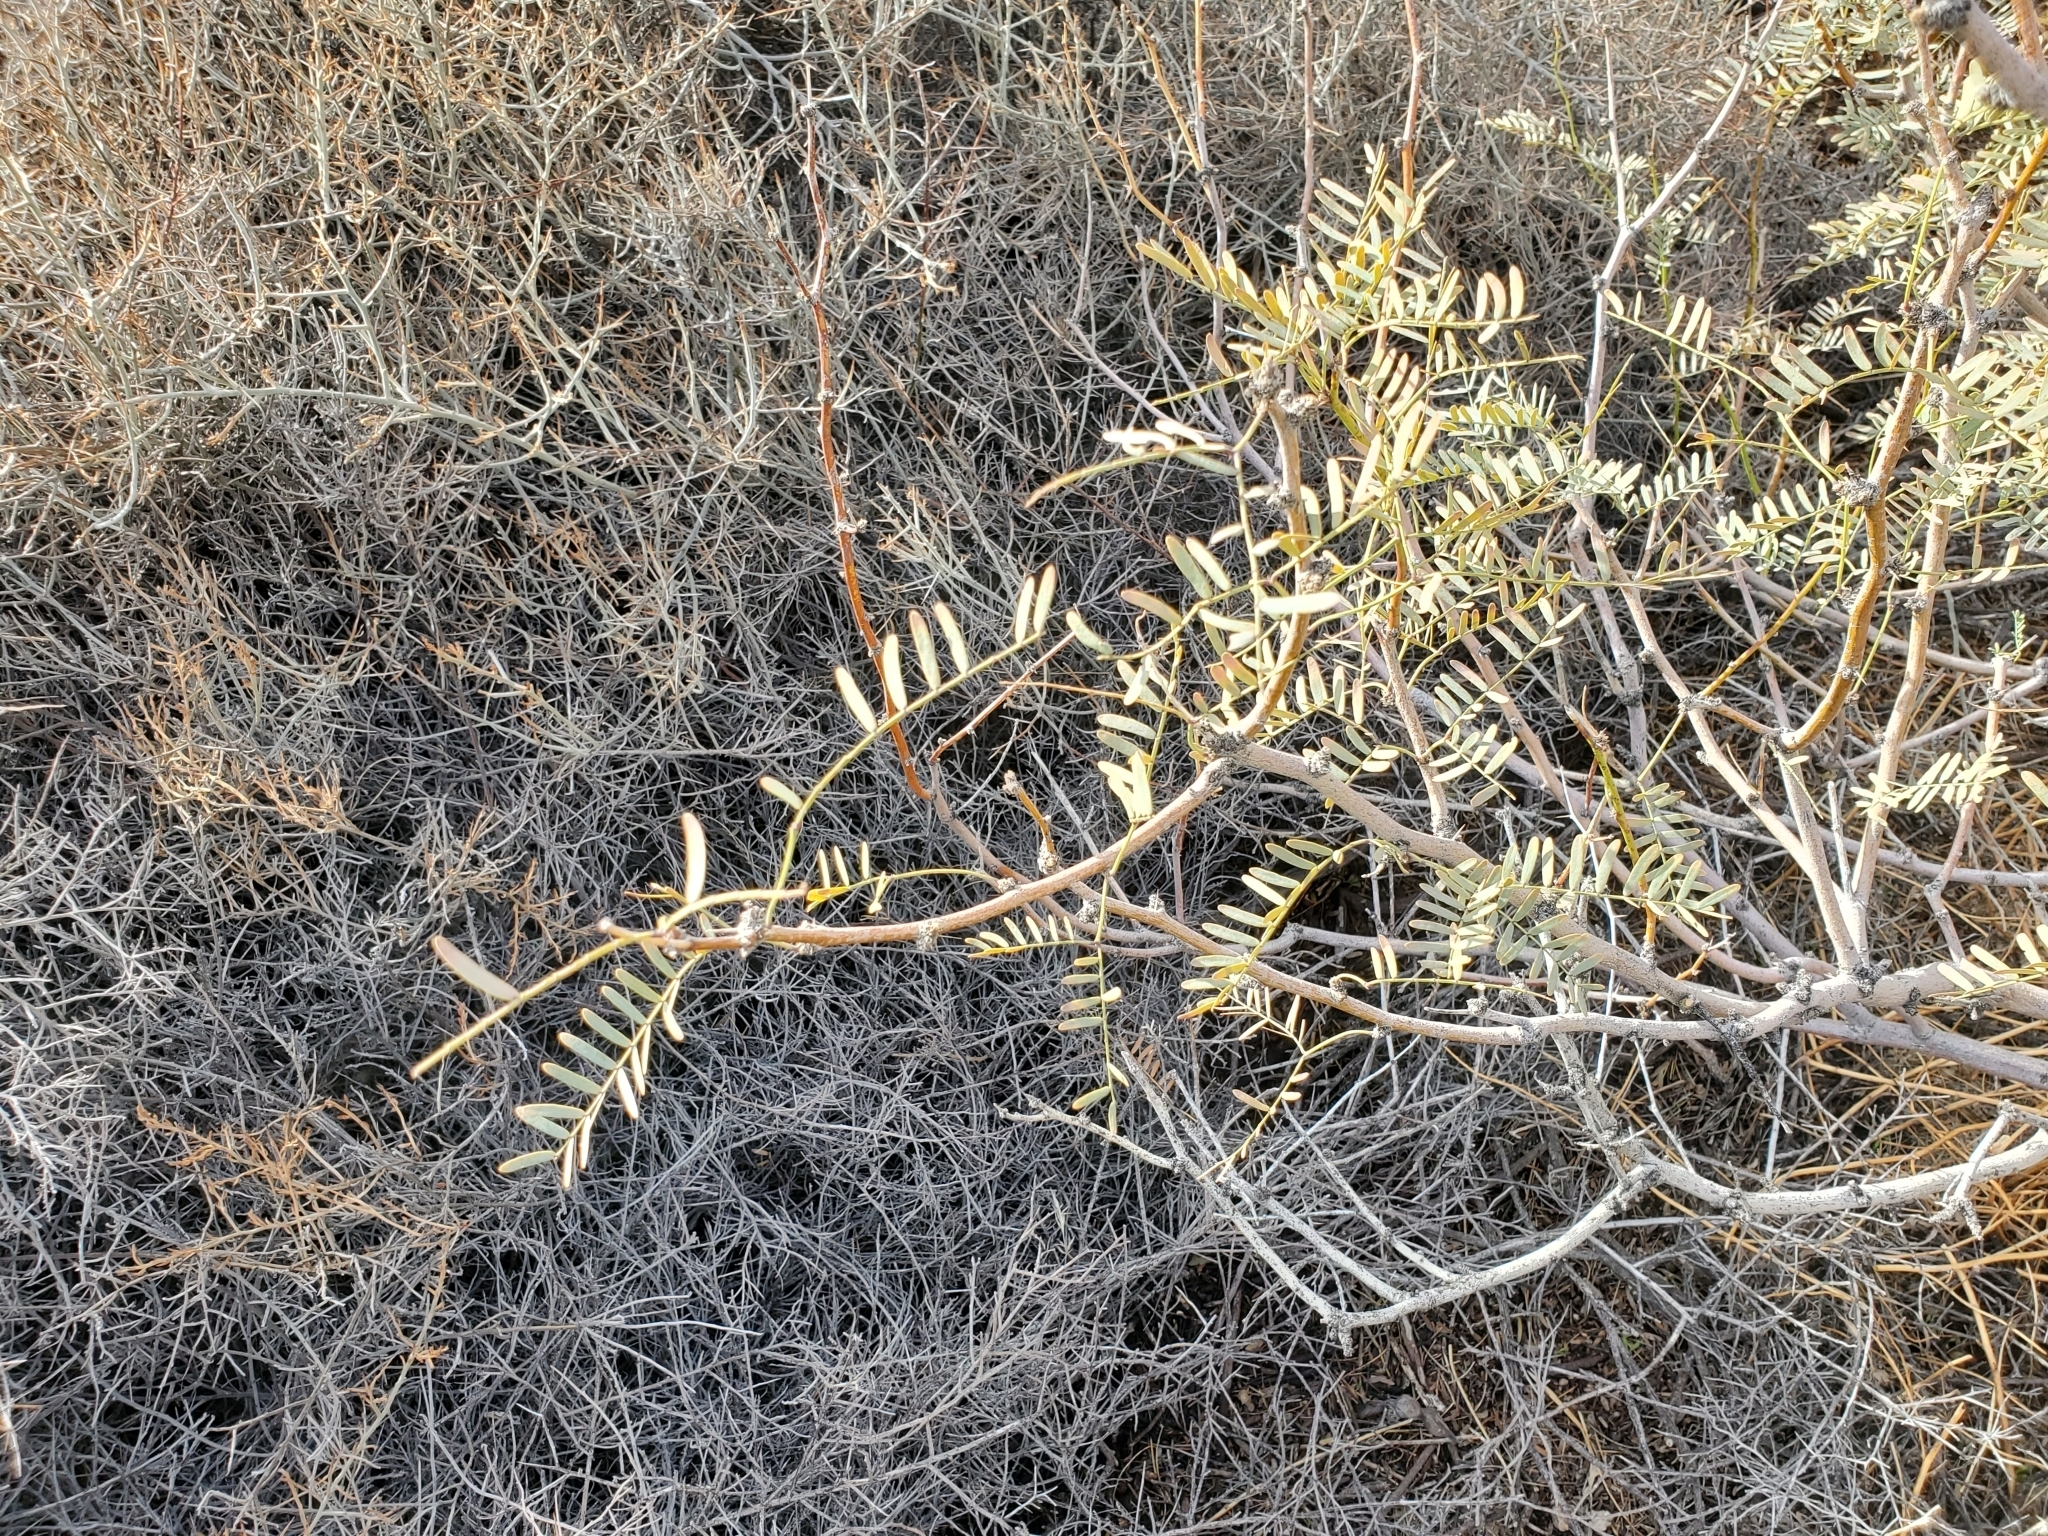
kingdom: Plantae
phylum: Tracheophyta
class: Magnoliopsida
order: Santalales
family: Viscaceae
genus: Phoradendron
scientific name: Phoradendron californicum
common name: Acacia mistletoe
